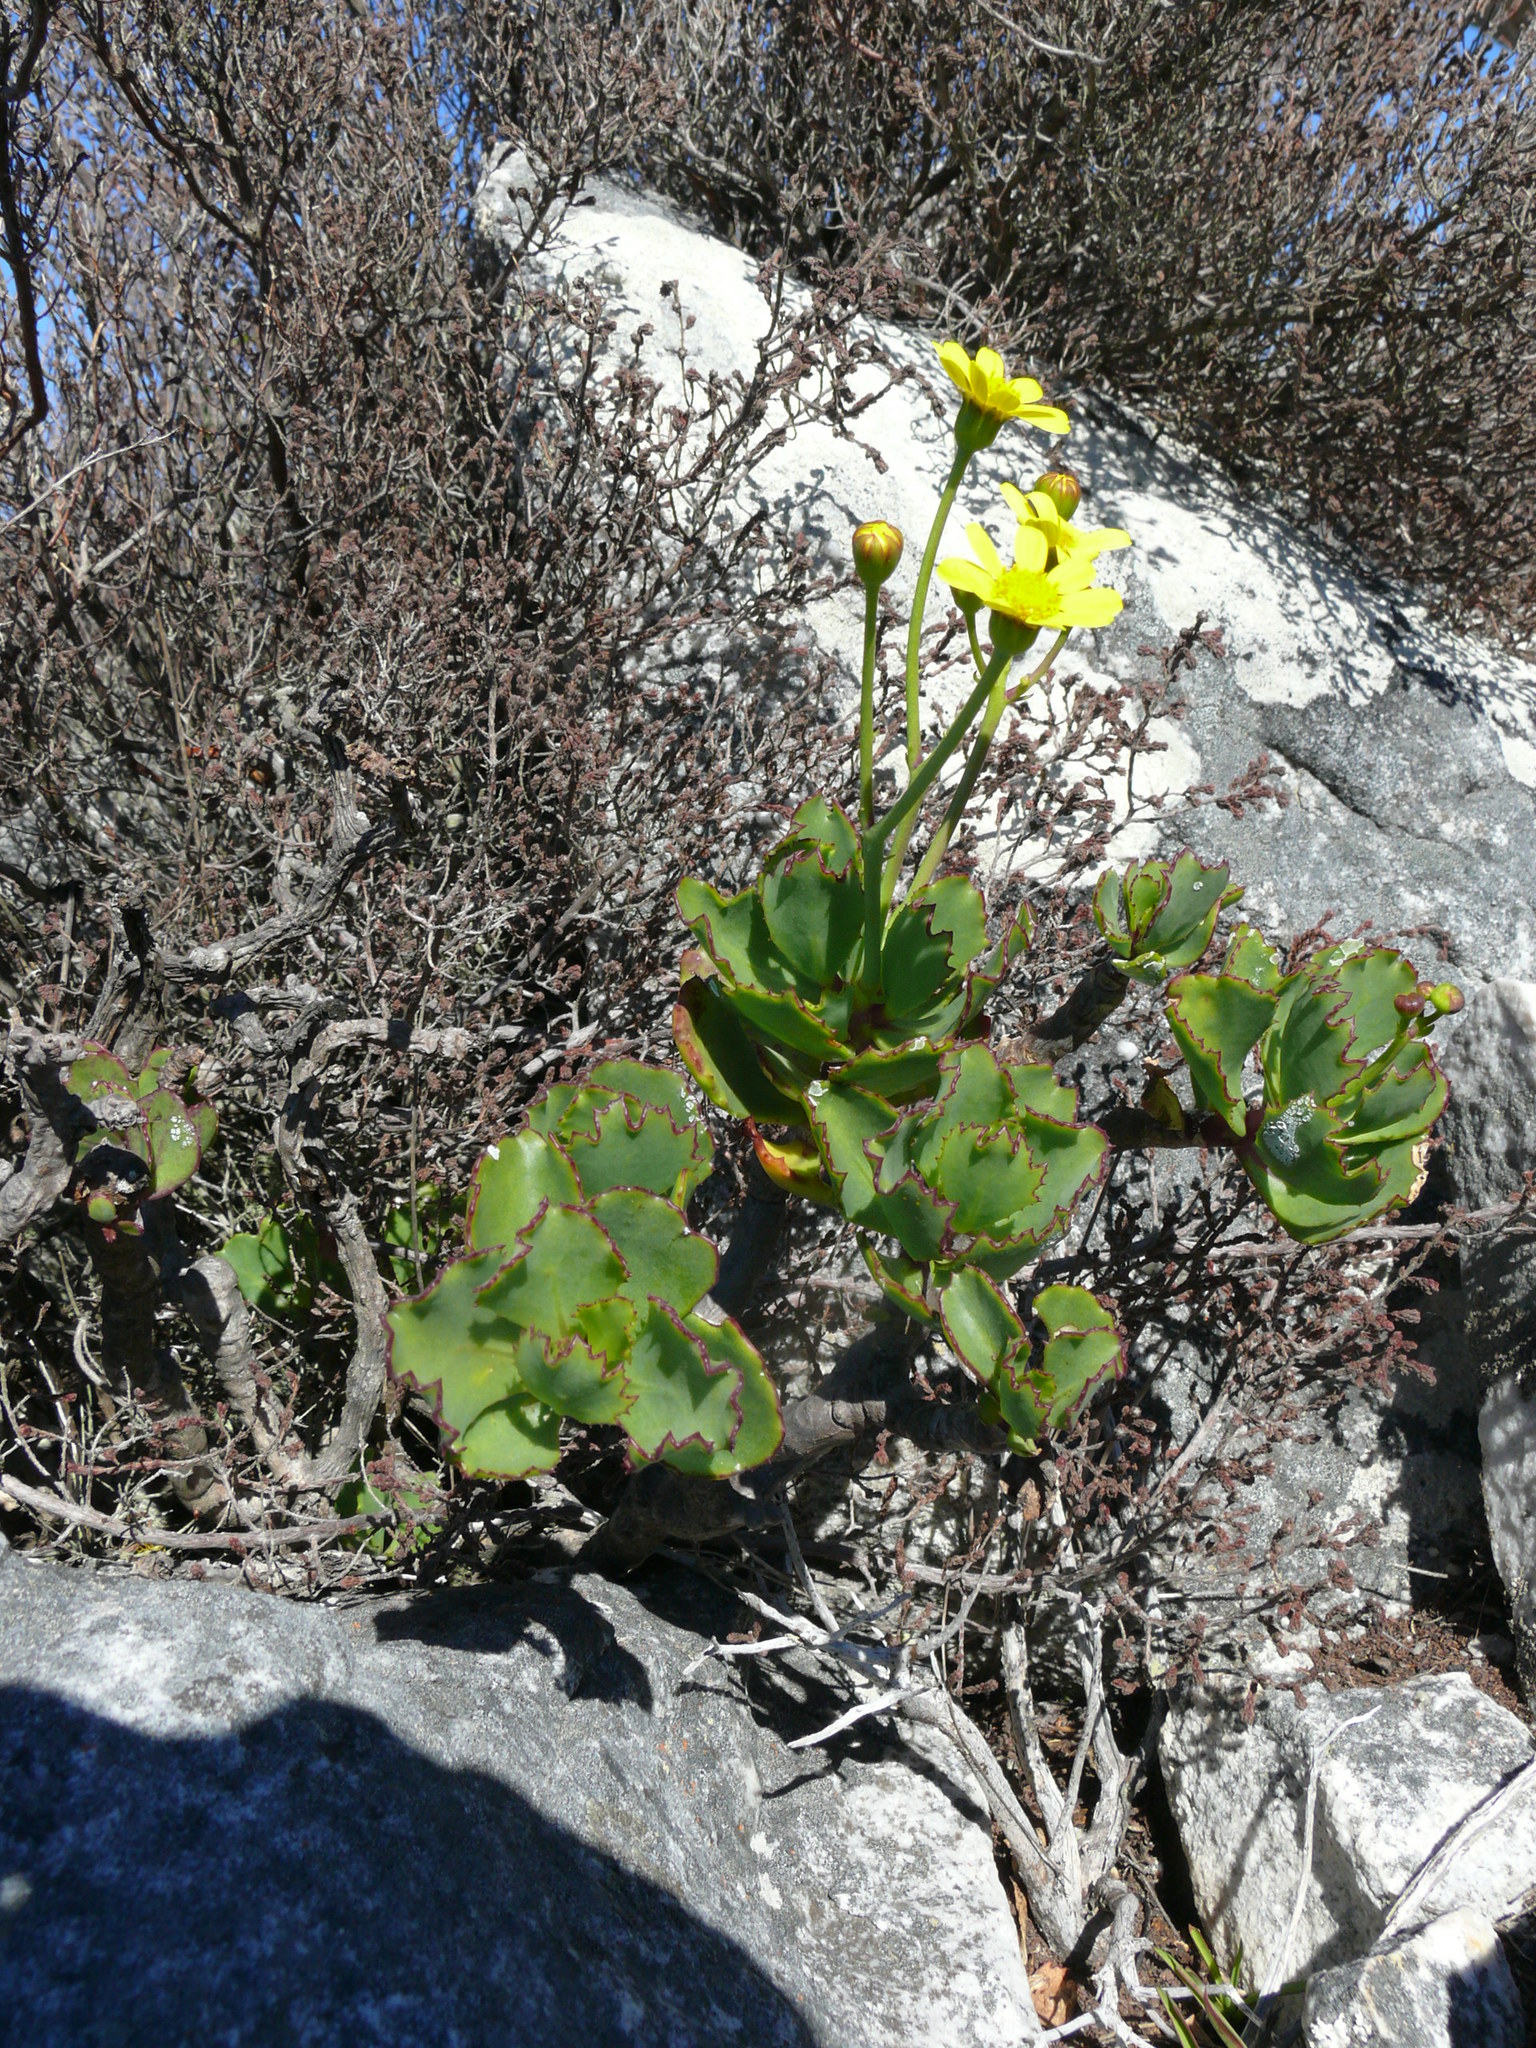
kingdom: Plantae
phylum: Tracheophyta
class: Magnoliopsida
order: Asterales
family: Asteraceae
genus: Othonna
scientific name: Othonna dentata
